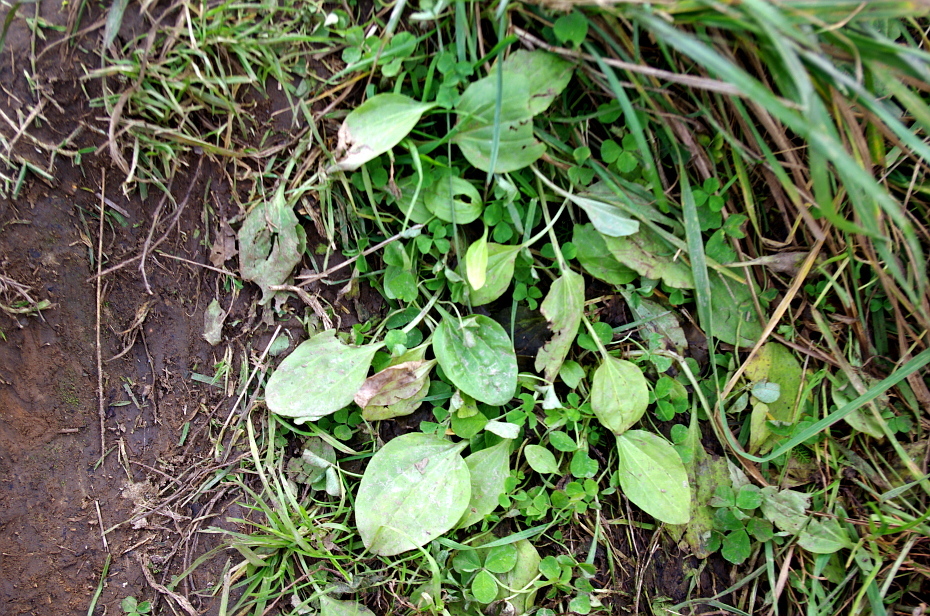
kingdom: Plantae
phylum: Tracheophyta
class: Magnoliopsida
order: Lamiales
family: Plantaginaceae
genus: Plantago
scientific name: Plantago major
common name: Common plantain
